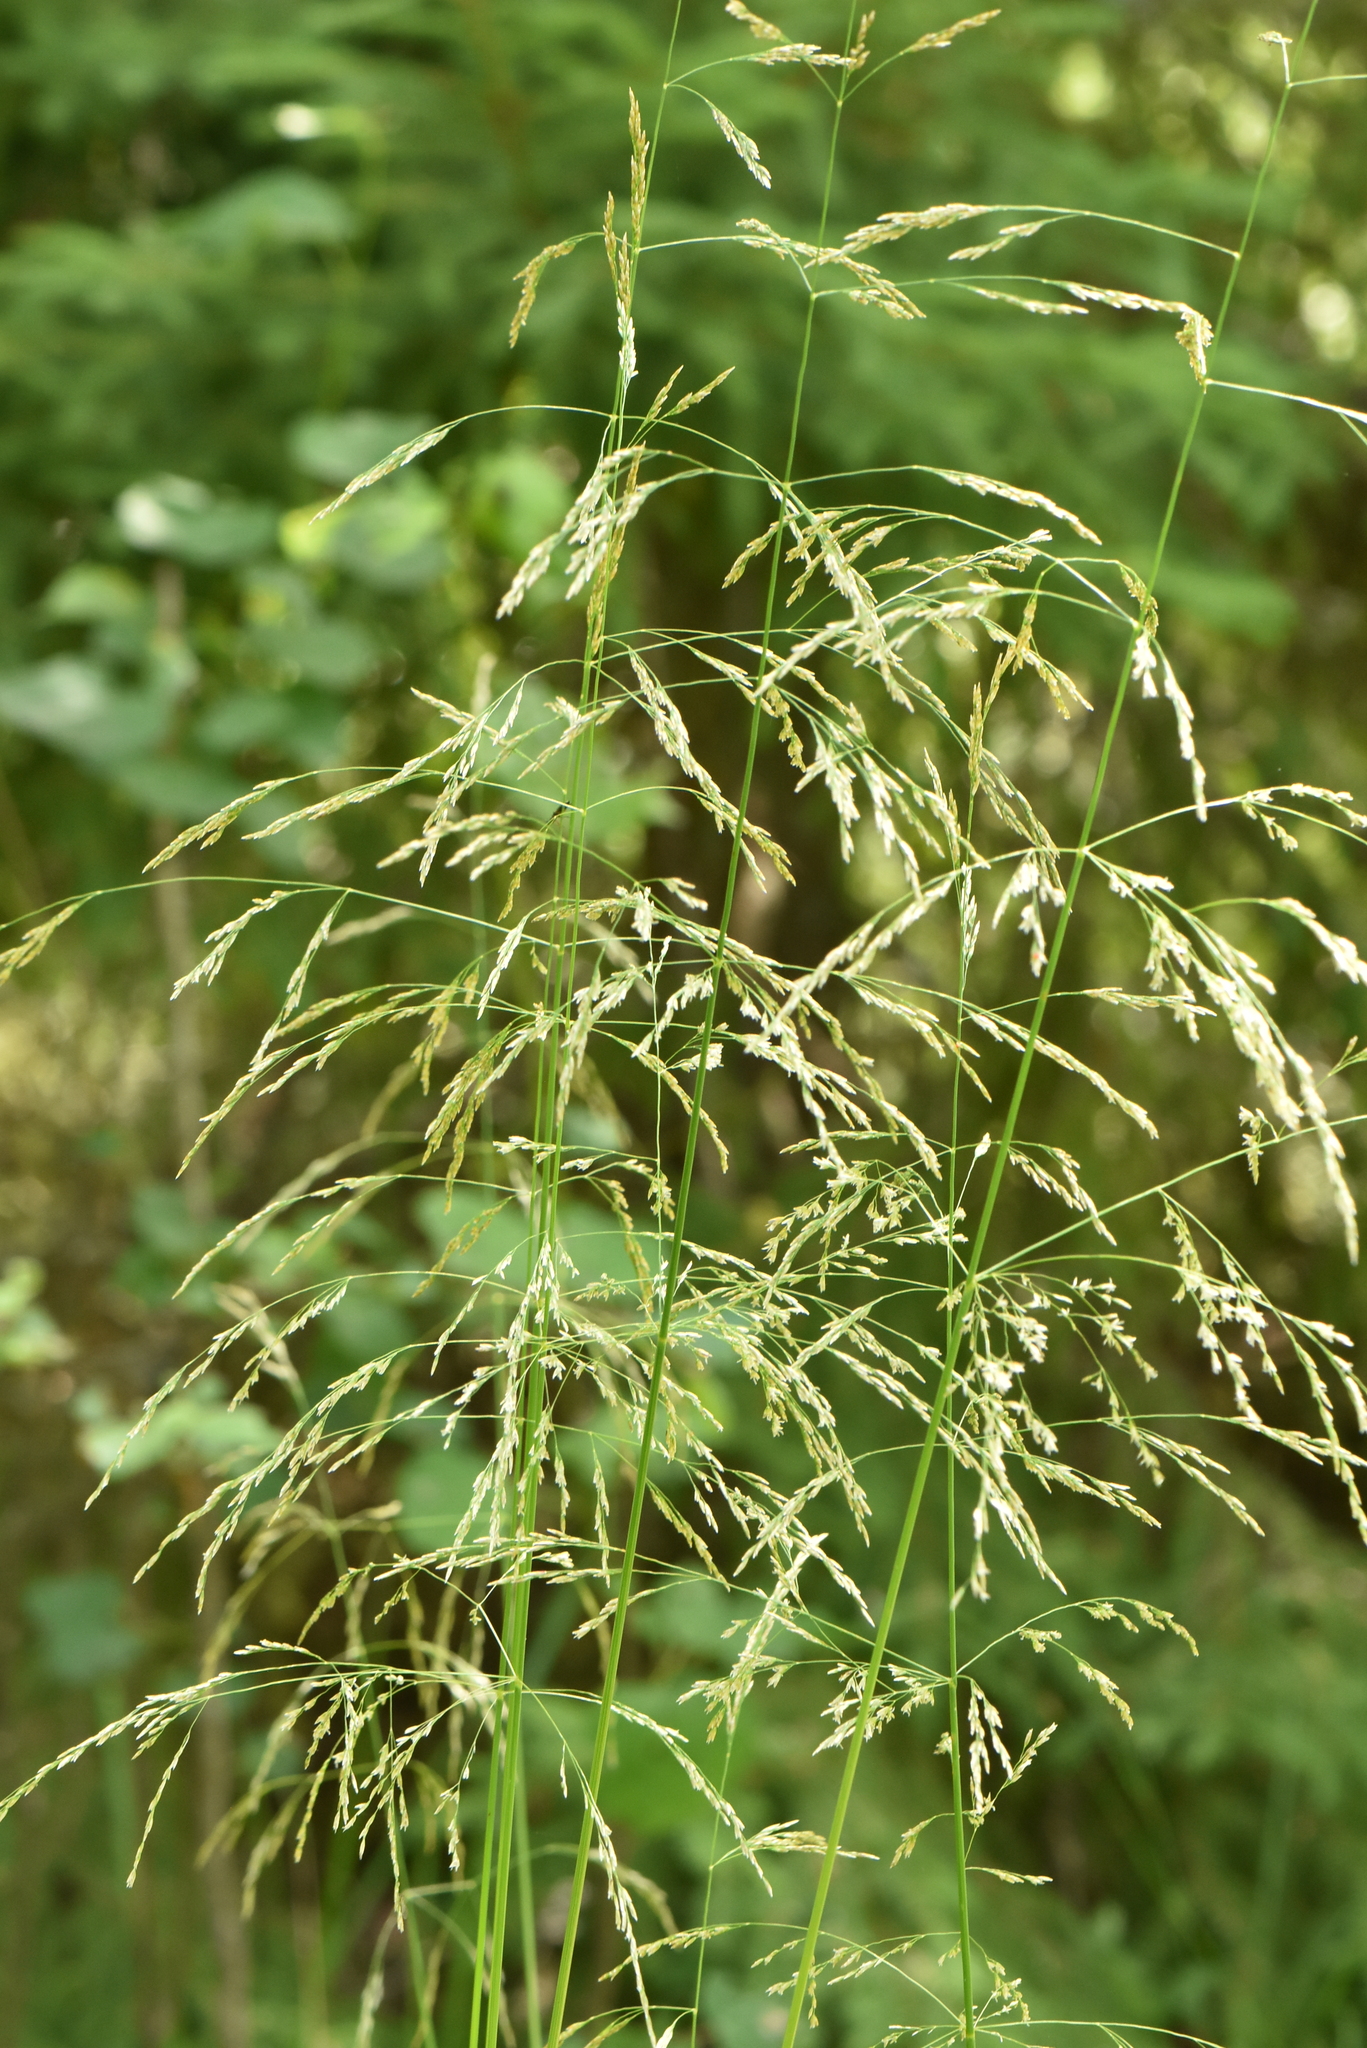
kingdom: Plantae
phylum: Tracheophyta
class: Liliopsida
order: Poales
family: Poaceae
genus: Deschampsia
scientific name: Deschampsia cespitosa
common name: Tufted hair-grass
